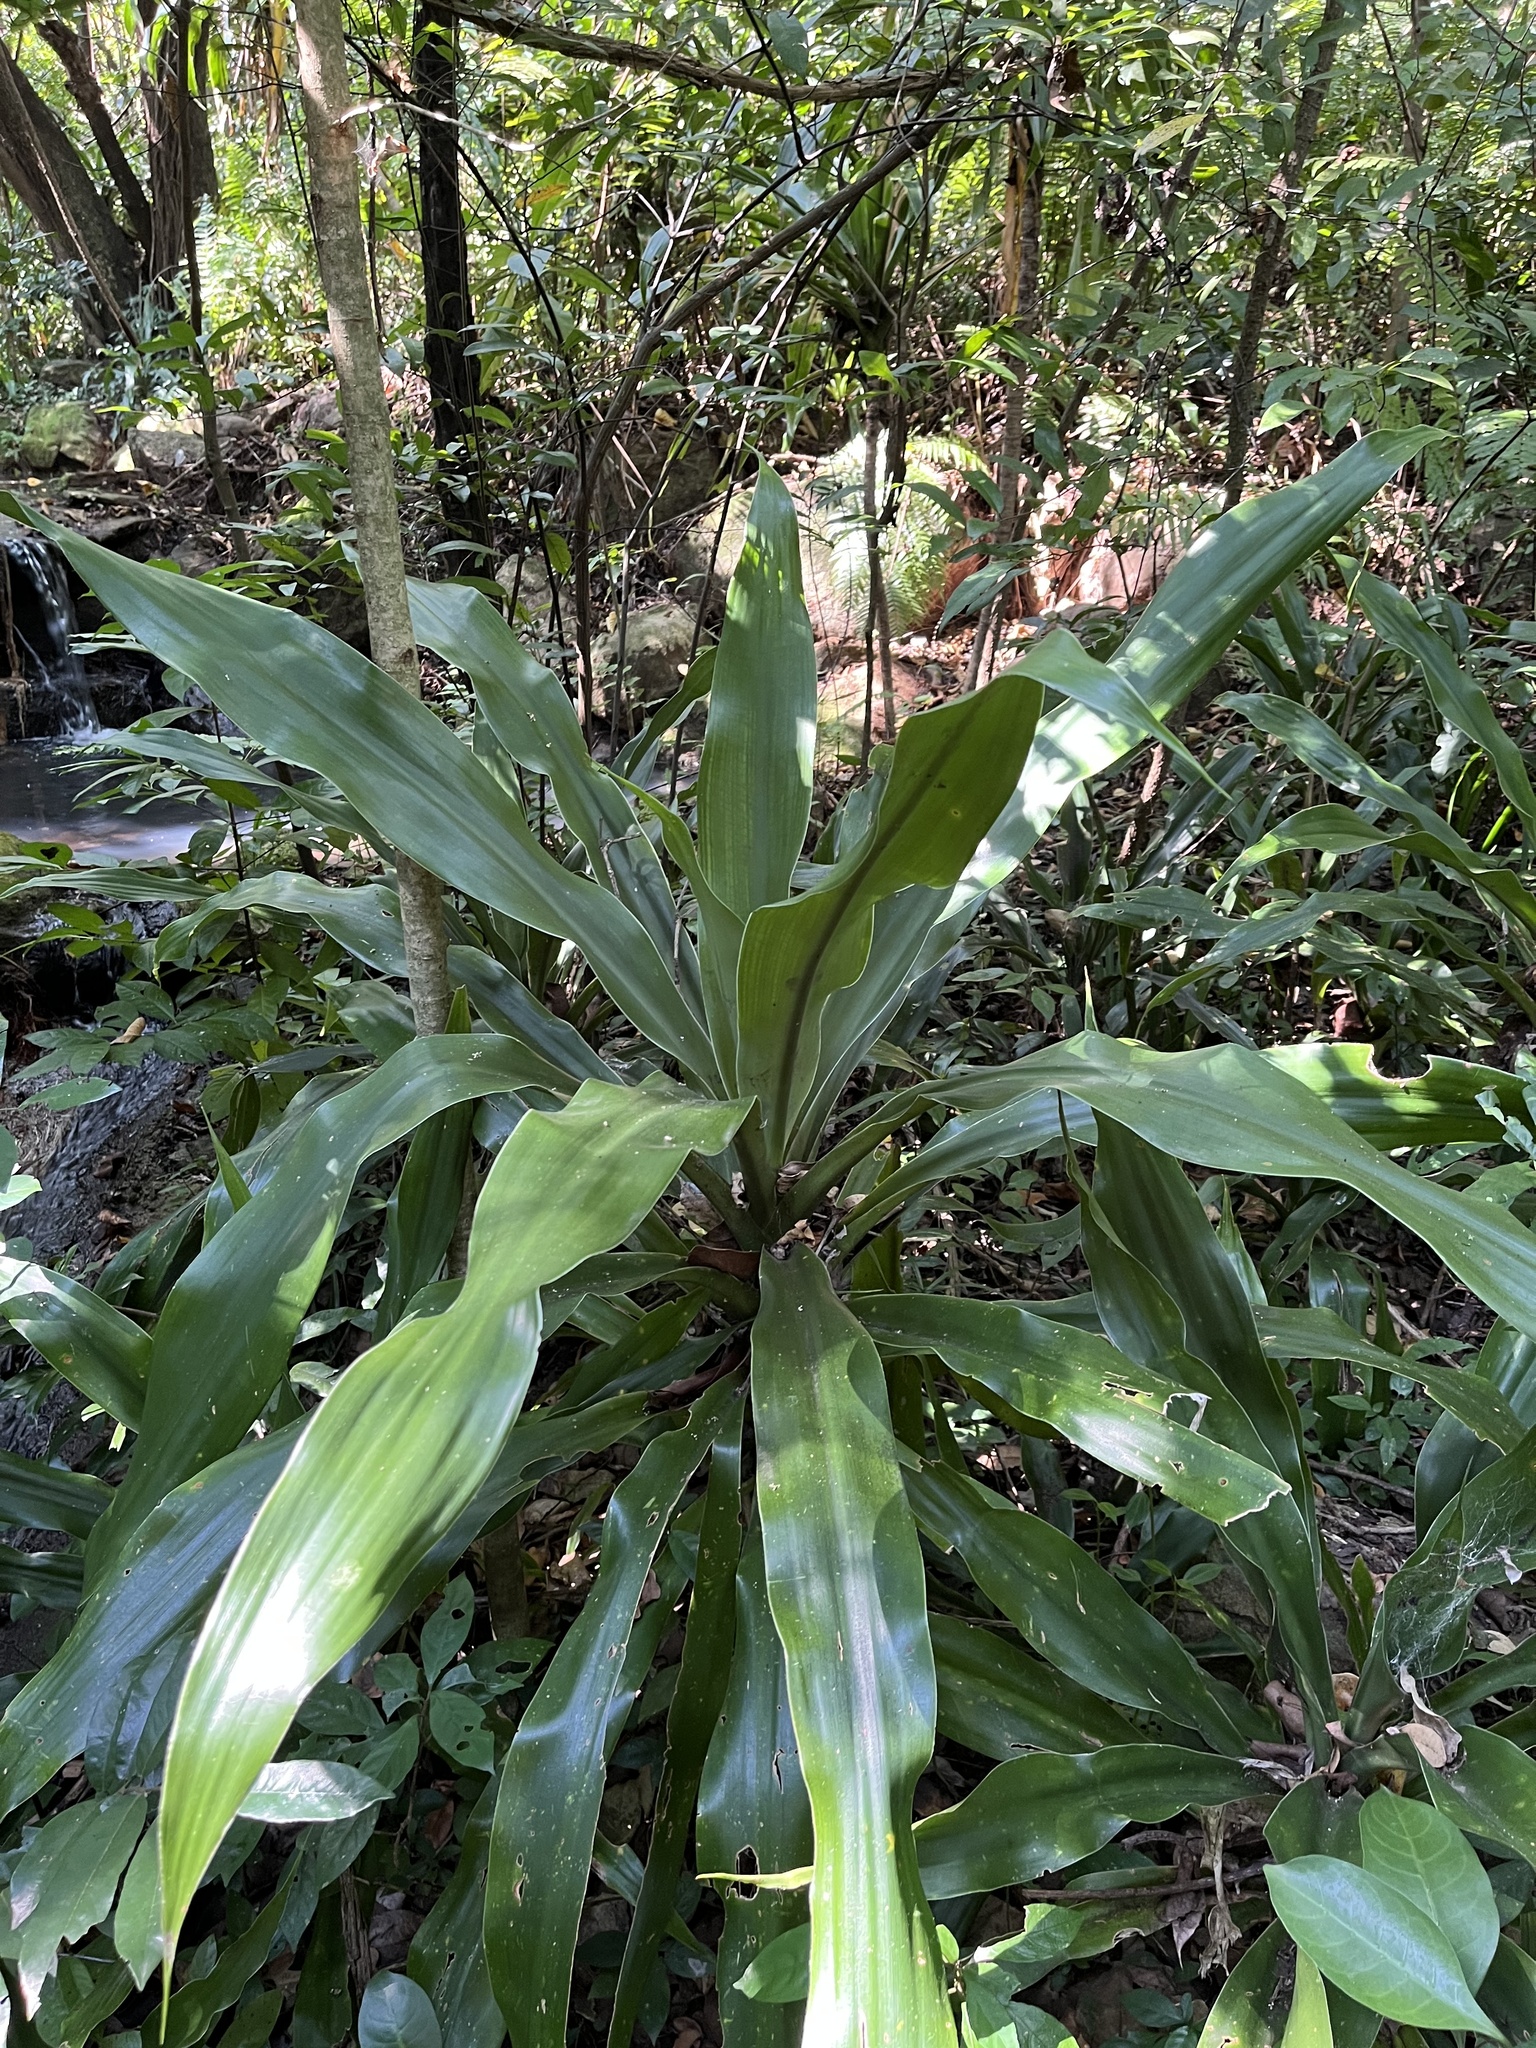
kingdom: Plantae
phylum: Tracheophyta
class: Liliopsida
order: Asparagales
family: Asparagaceae
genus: Dracaena
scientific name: Dracaena aletriformis
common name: Large-leaved dragon tree
